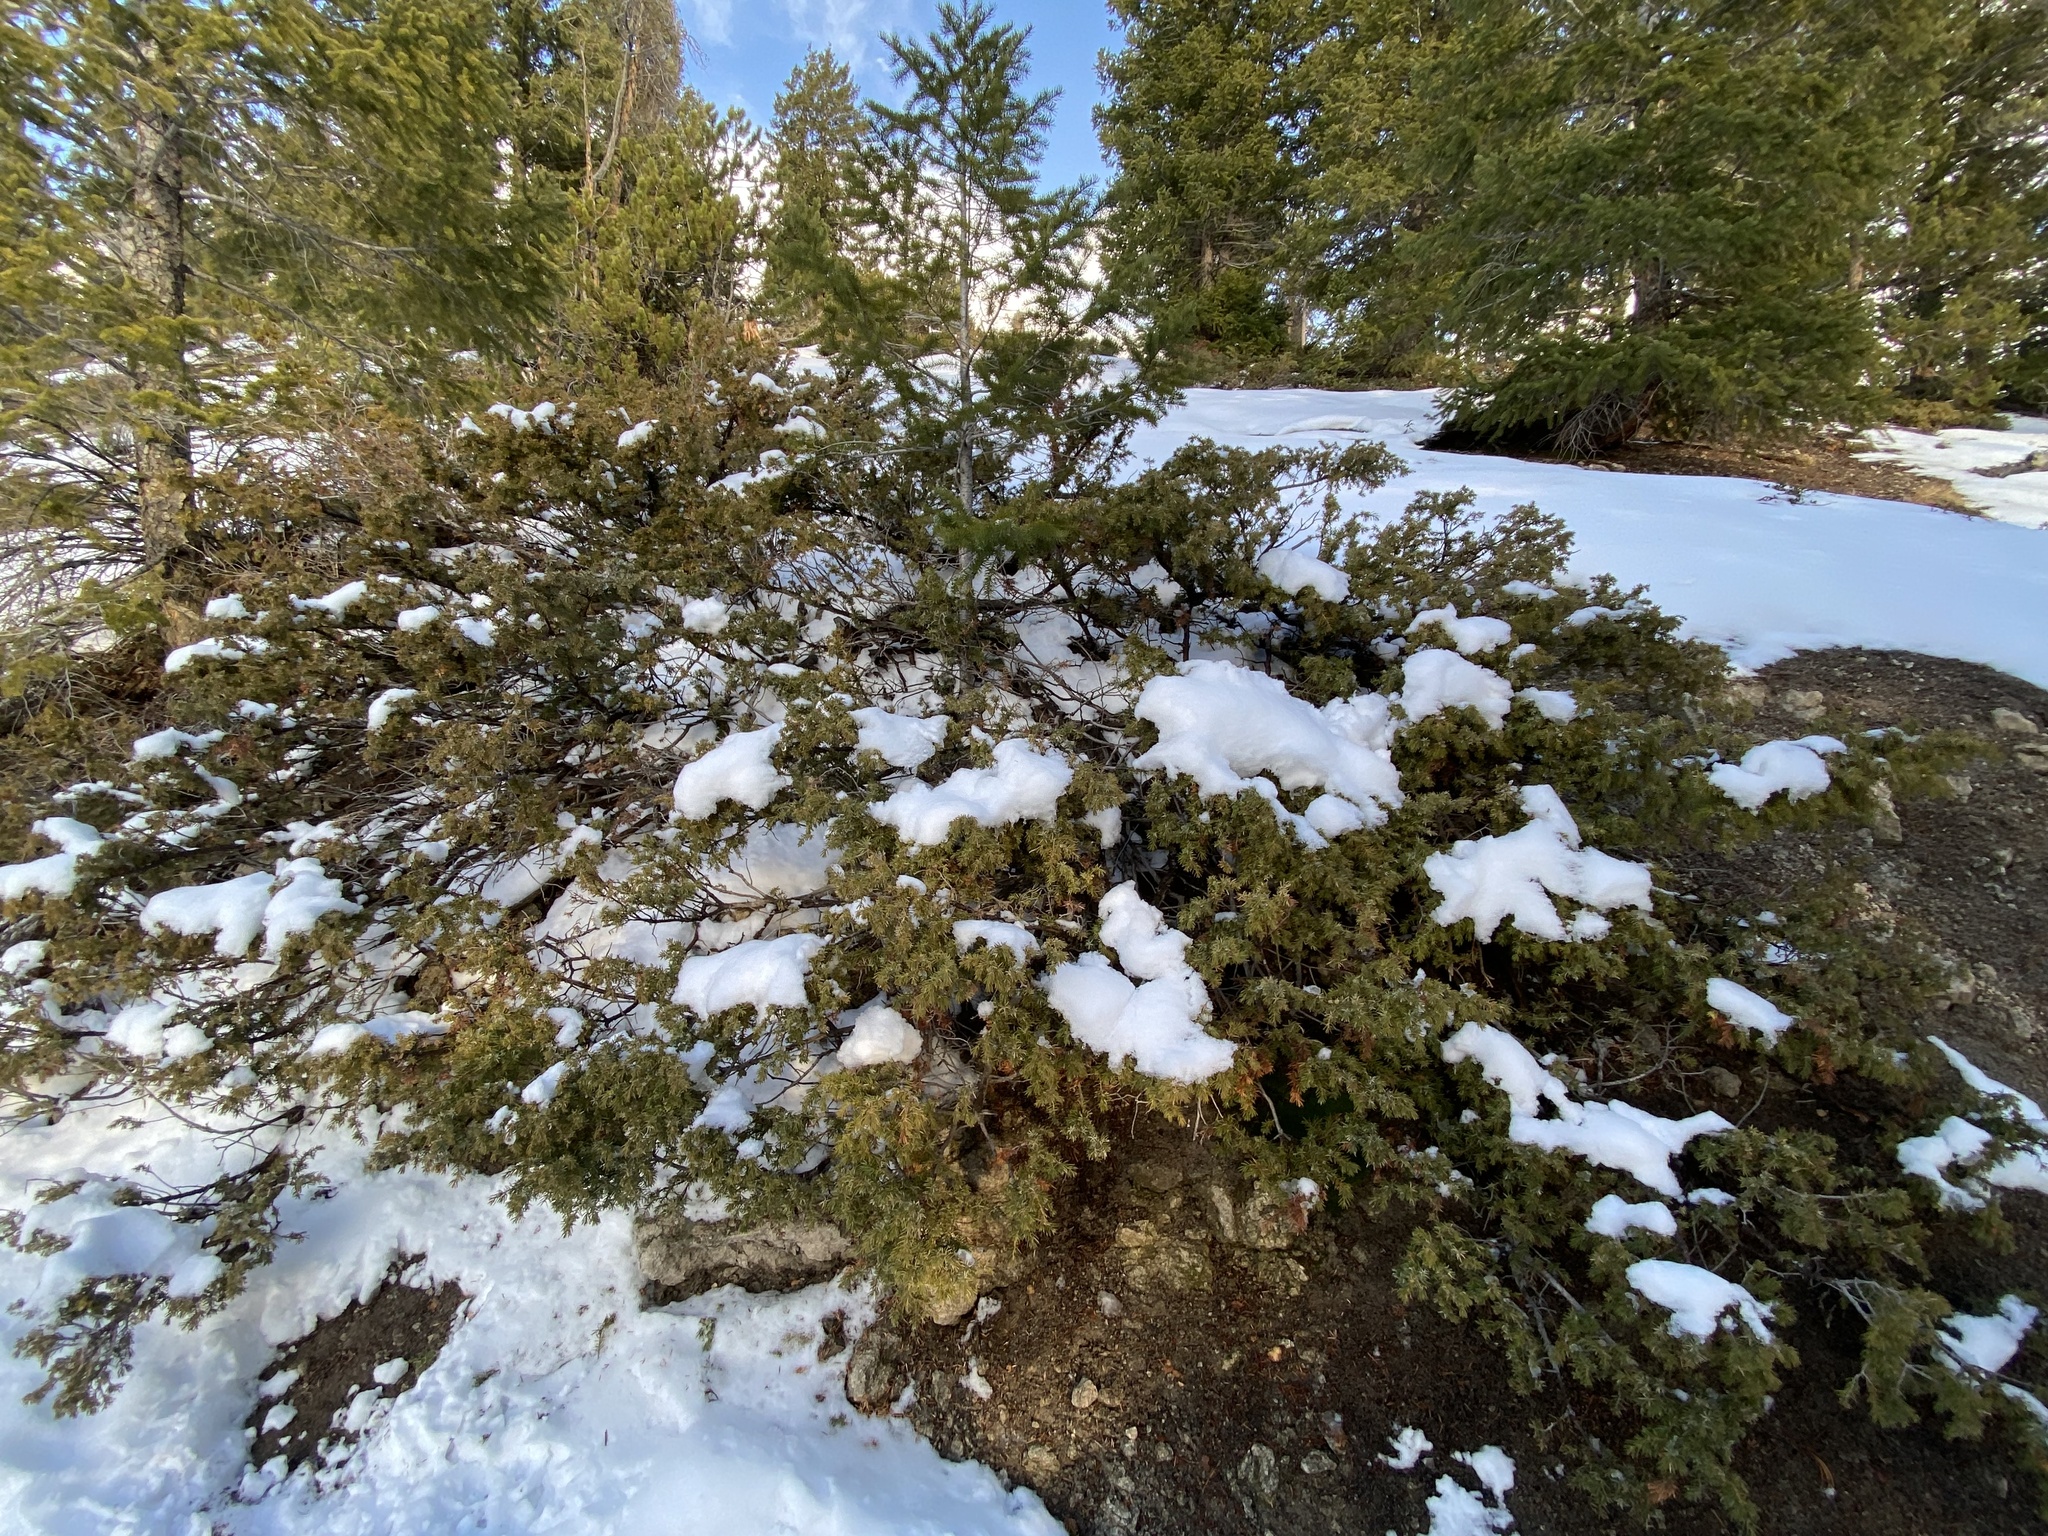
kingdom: Plantae
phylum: Tracheophyta
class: Pinopsida
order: Pinales
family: Cupressaceae
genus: Juniperus
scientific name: Juniperus communis
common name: Common juniper
